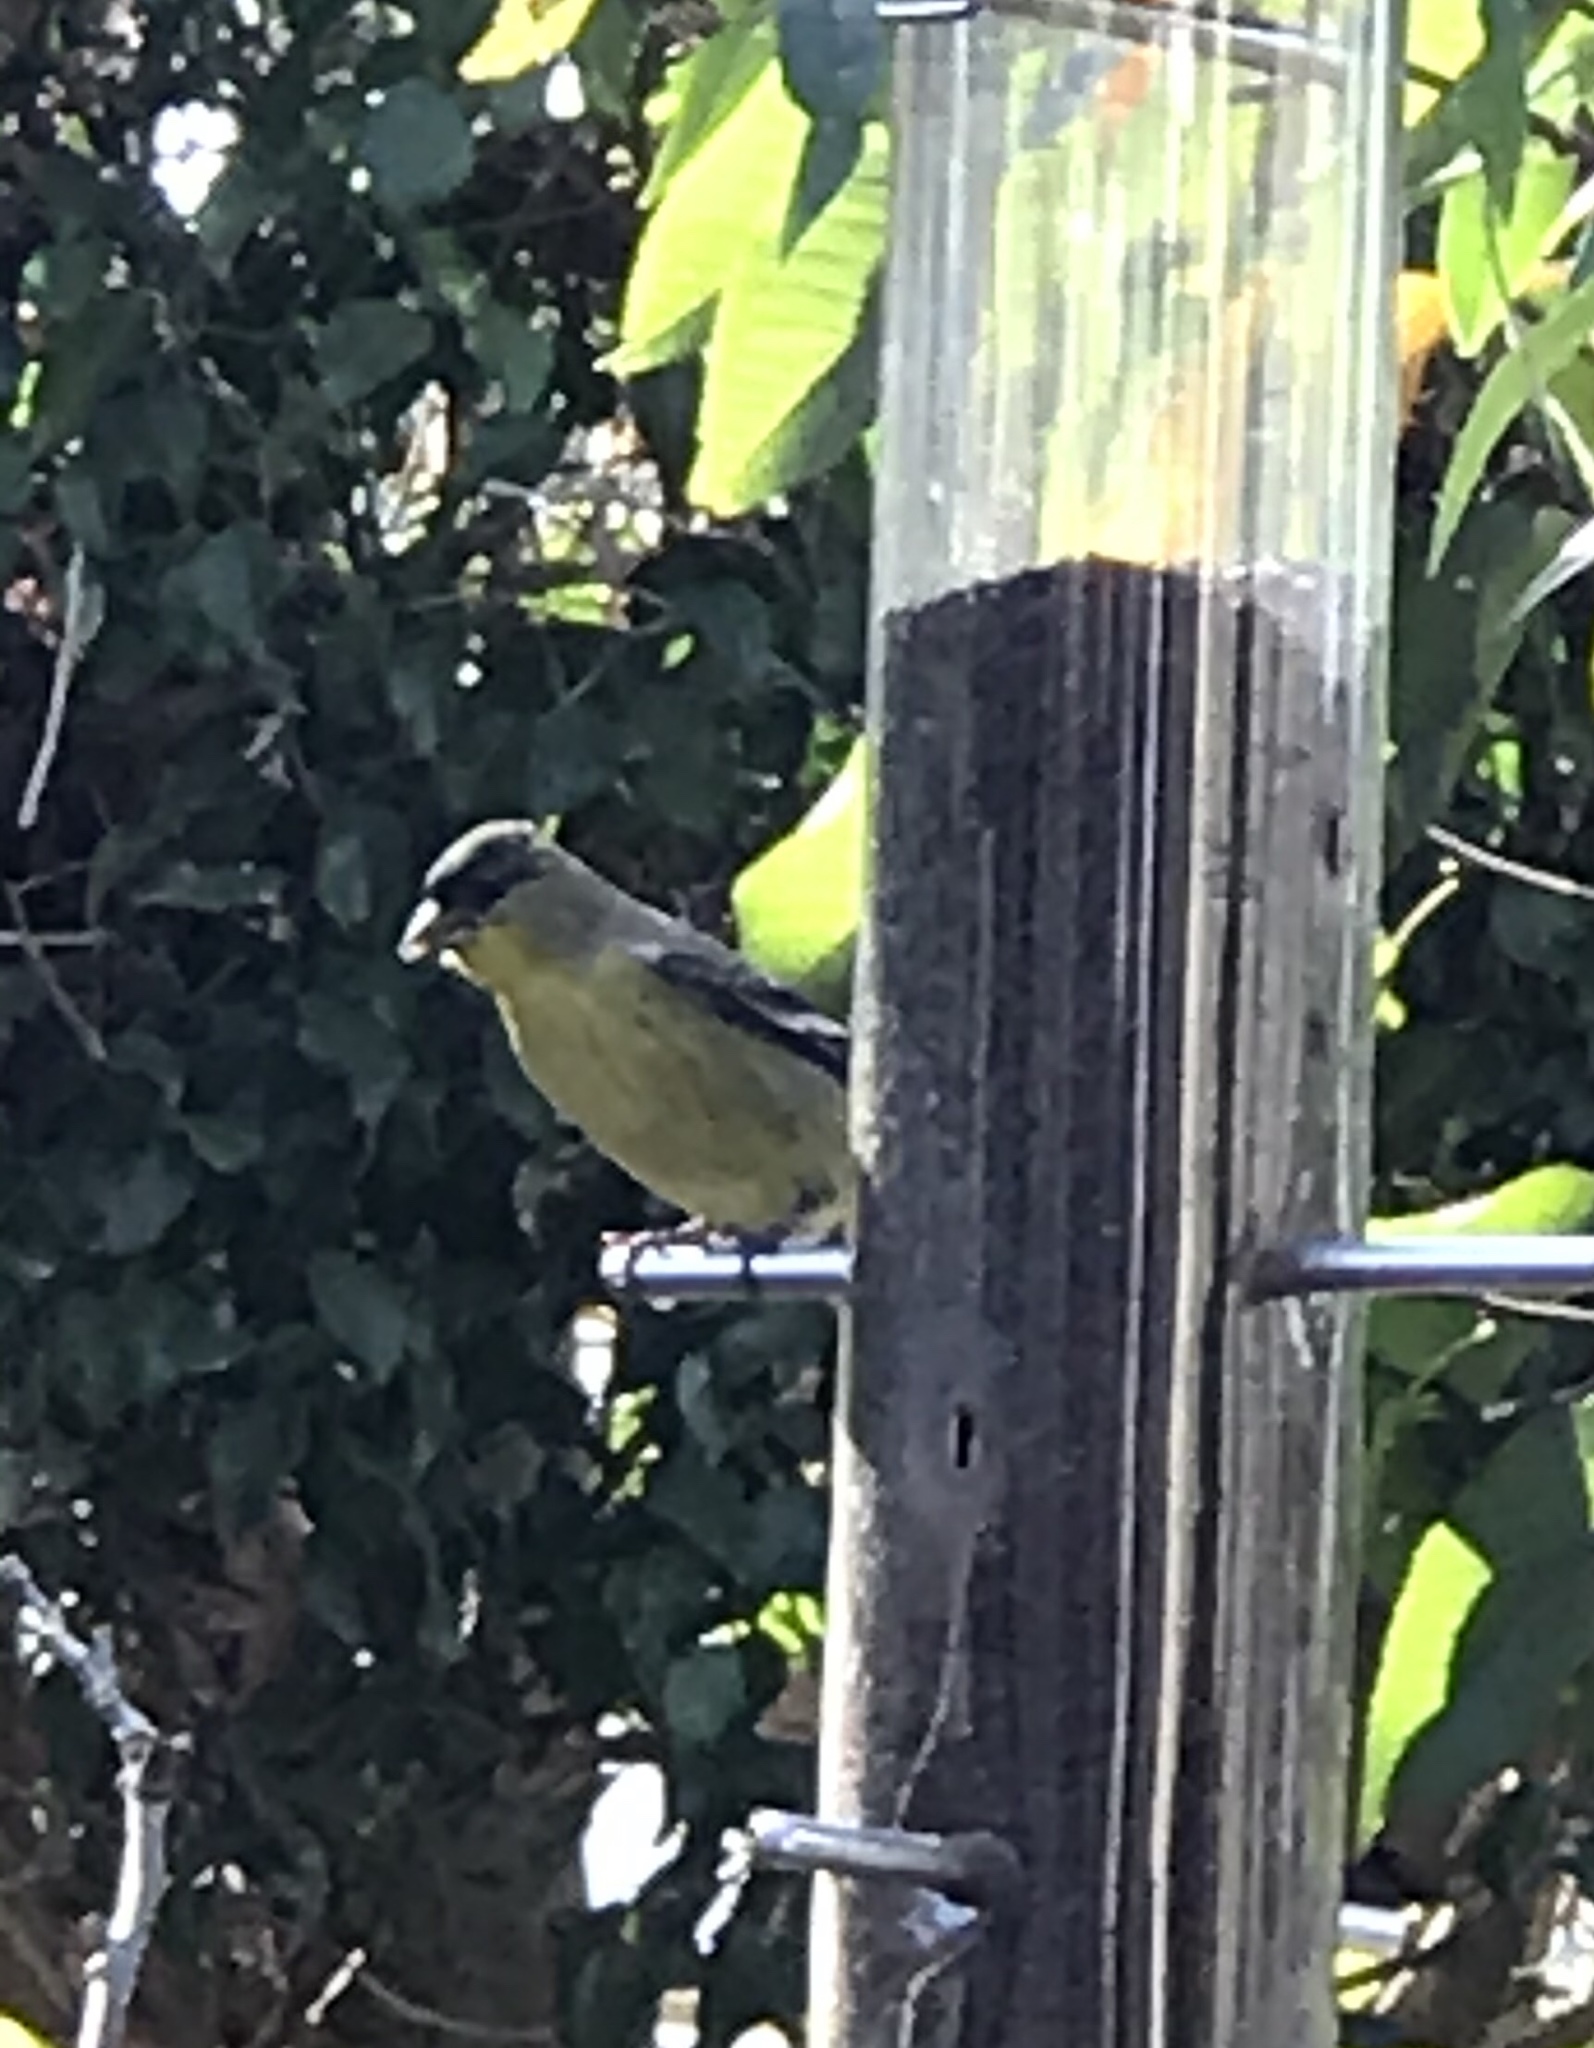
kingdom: Animalia
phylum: Chordata
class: Aves
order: Passeriformes
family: Fringillidae
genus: Spinus
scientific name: Spinus psaltria
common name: Lesser goldfinch
